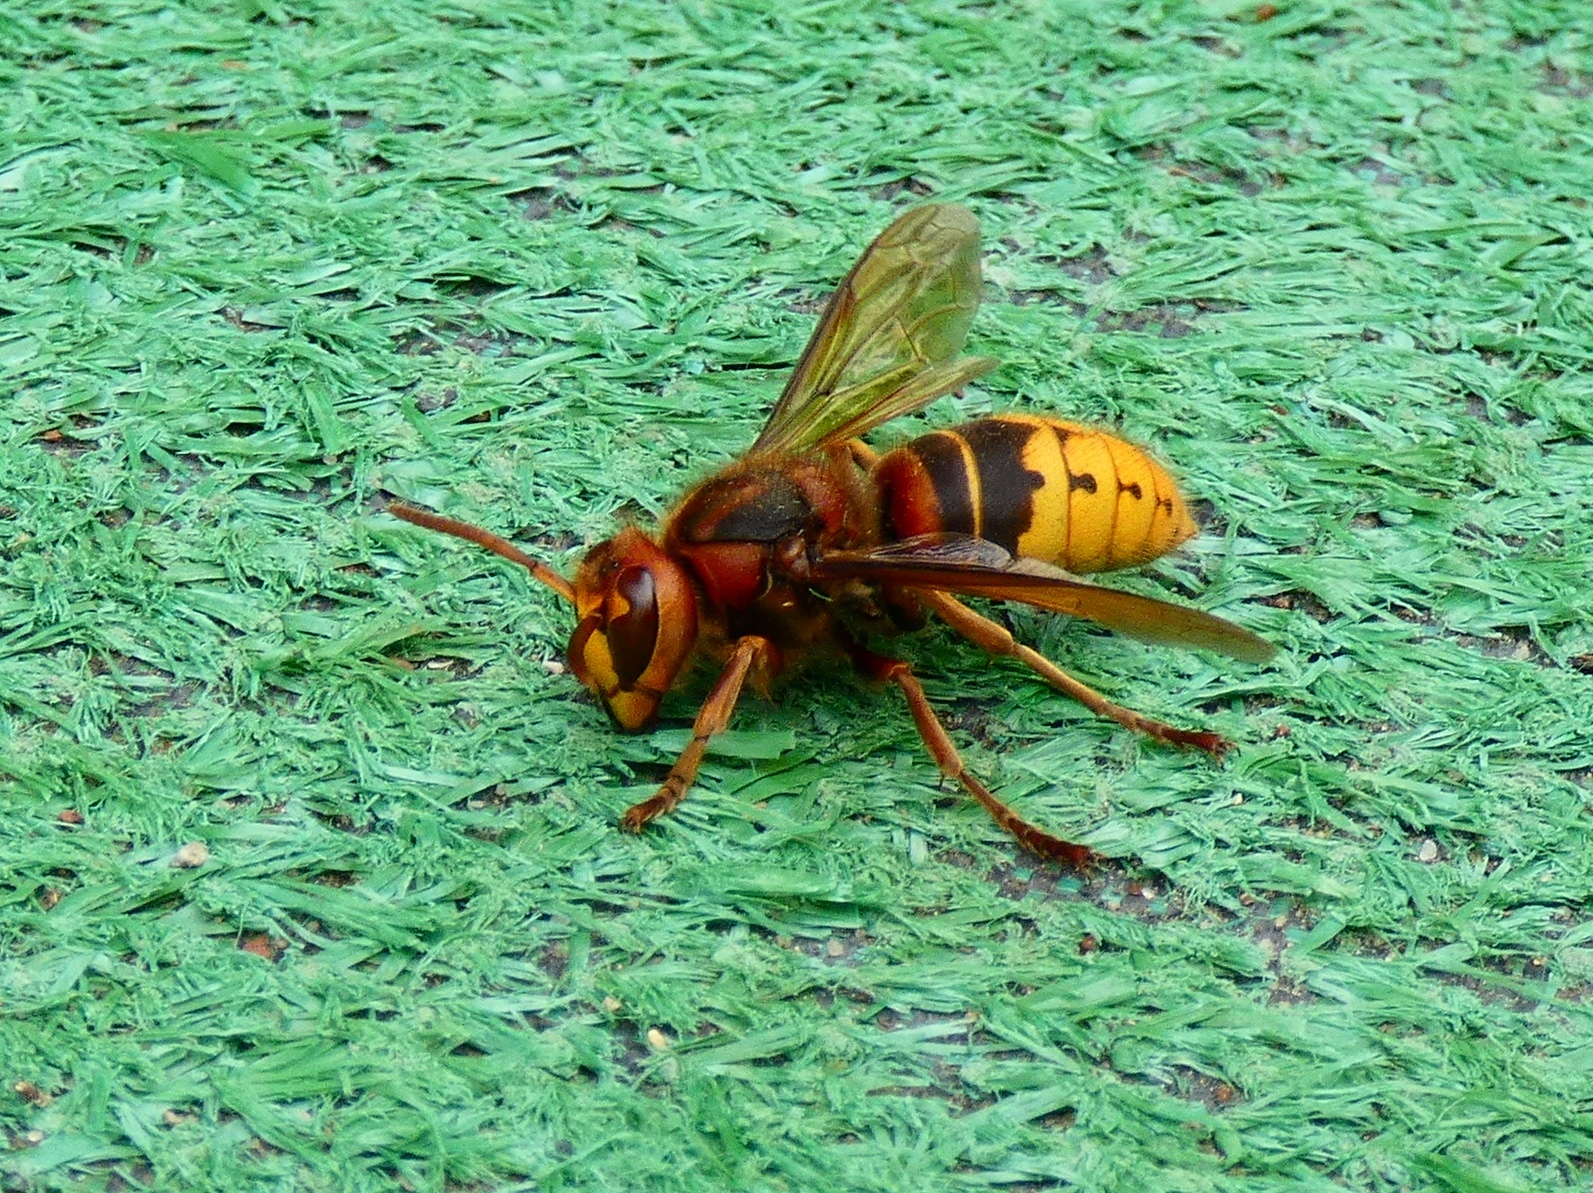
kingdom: Animalia
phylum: Arthropoda
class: Insecta
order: Hymenoptera
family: Vespidae
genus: Vespa
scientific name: Vespa crabro
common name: Hornet
